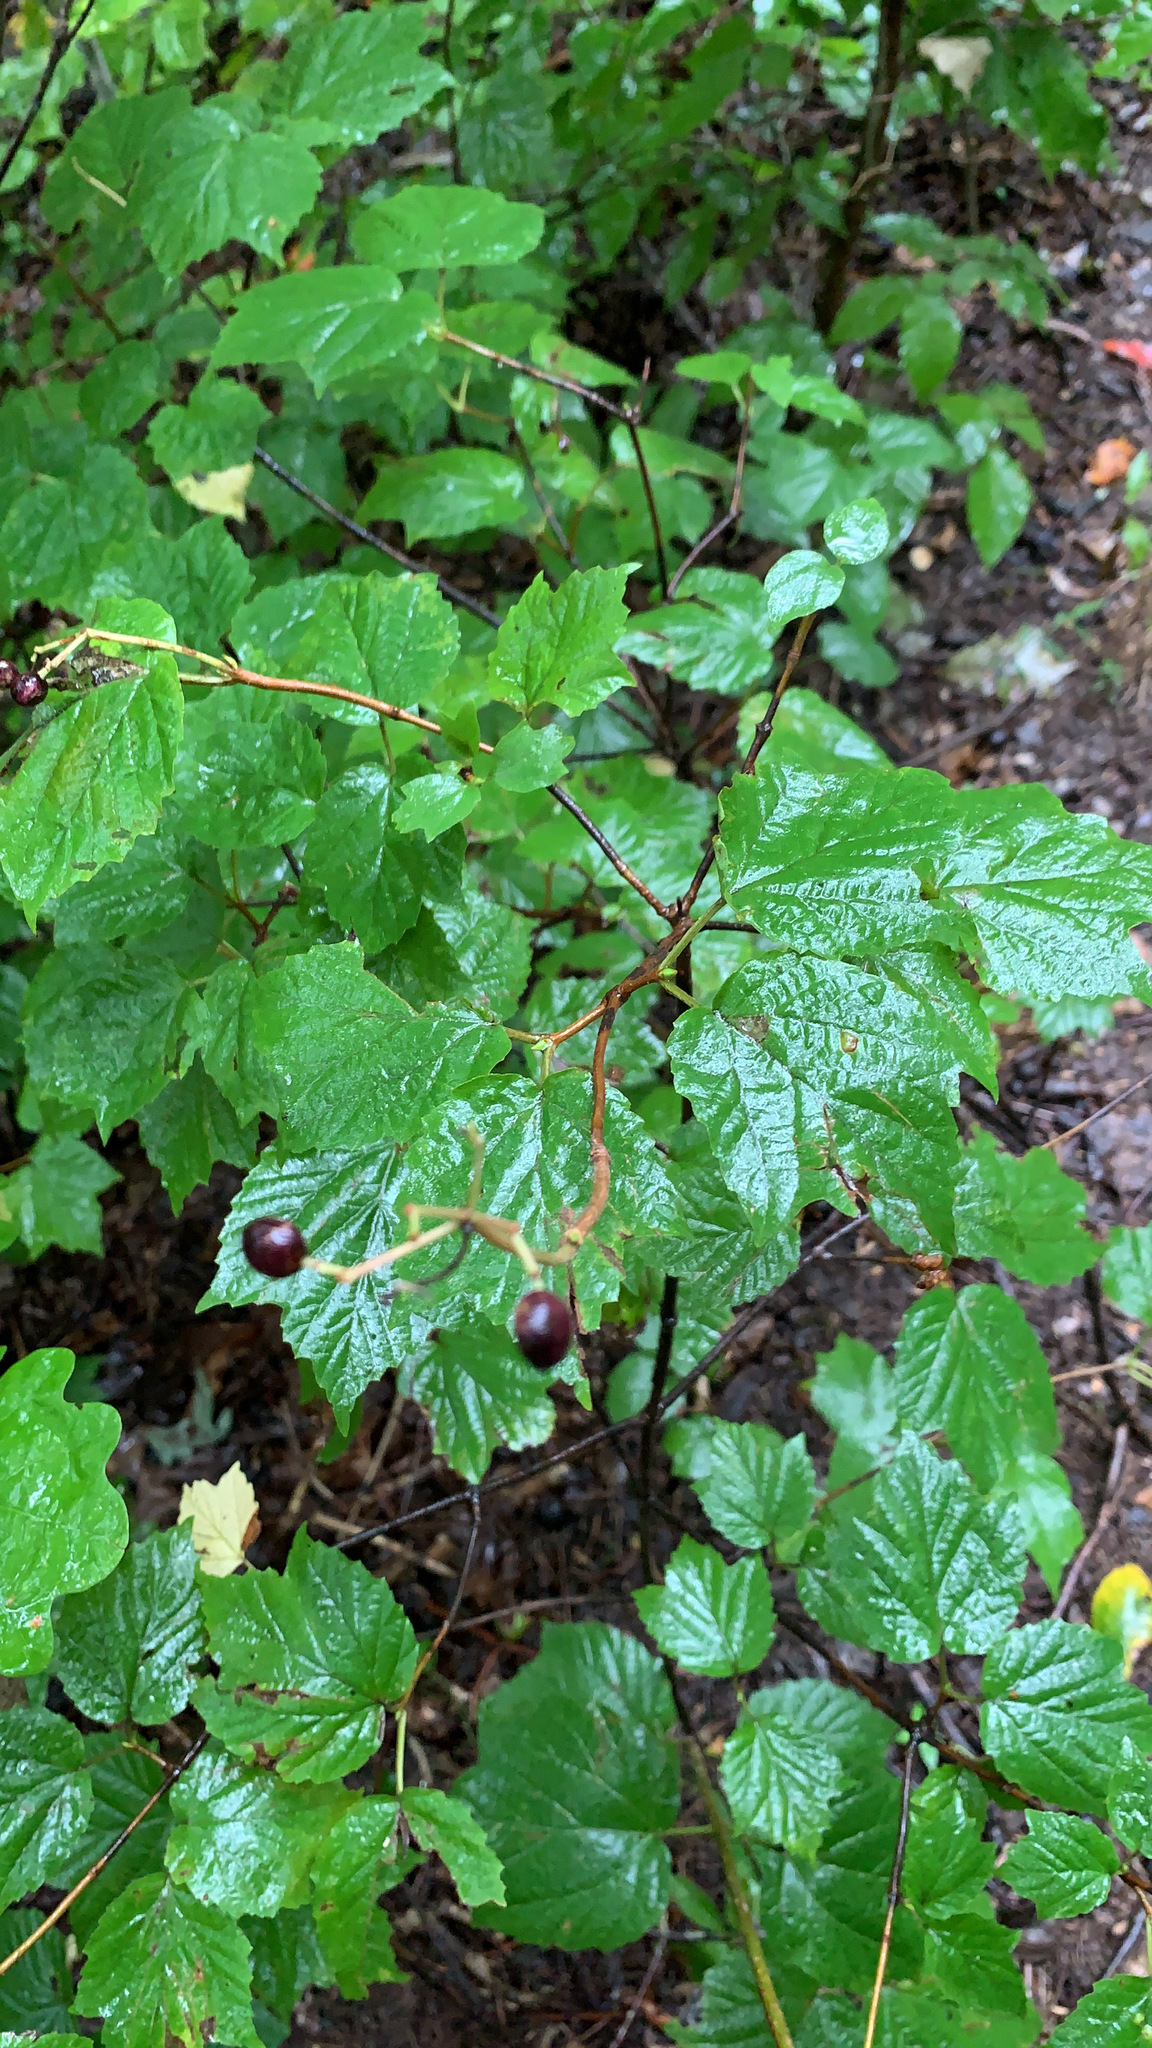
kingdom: Plantae
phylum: Tracheophyta
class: Magnoliopsida
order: Dipsacales
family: Viburnaceae
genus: Viburnum
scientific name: Viburnum acerifolium
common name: Dockmackie
